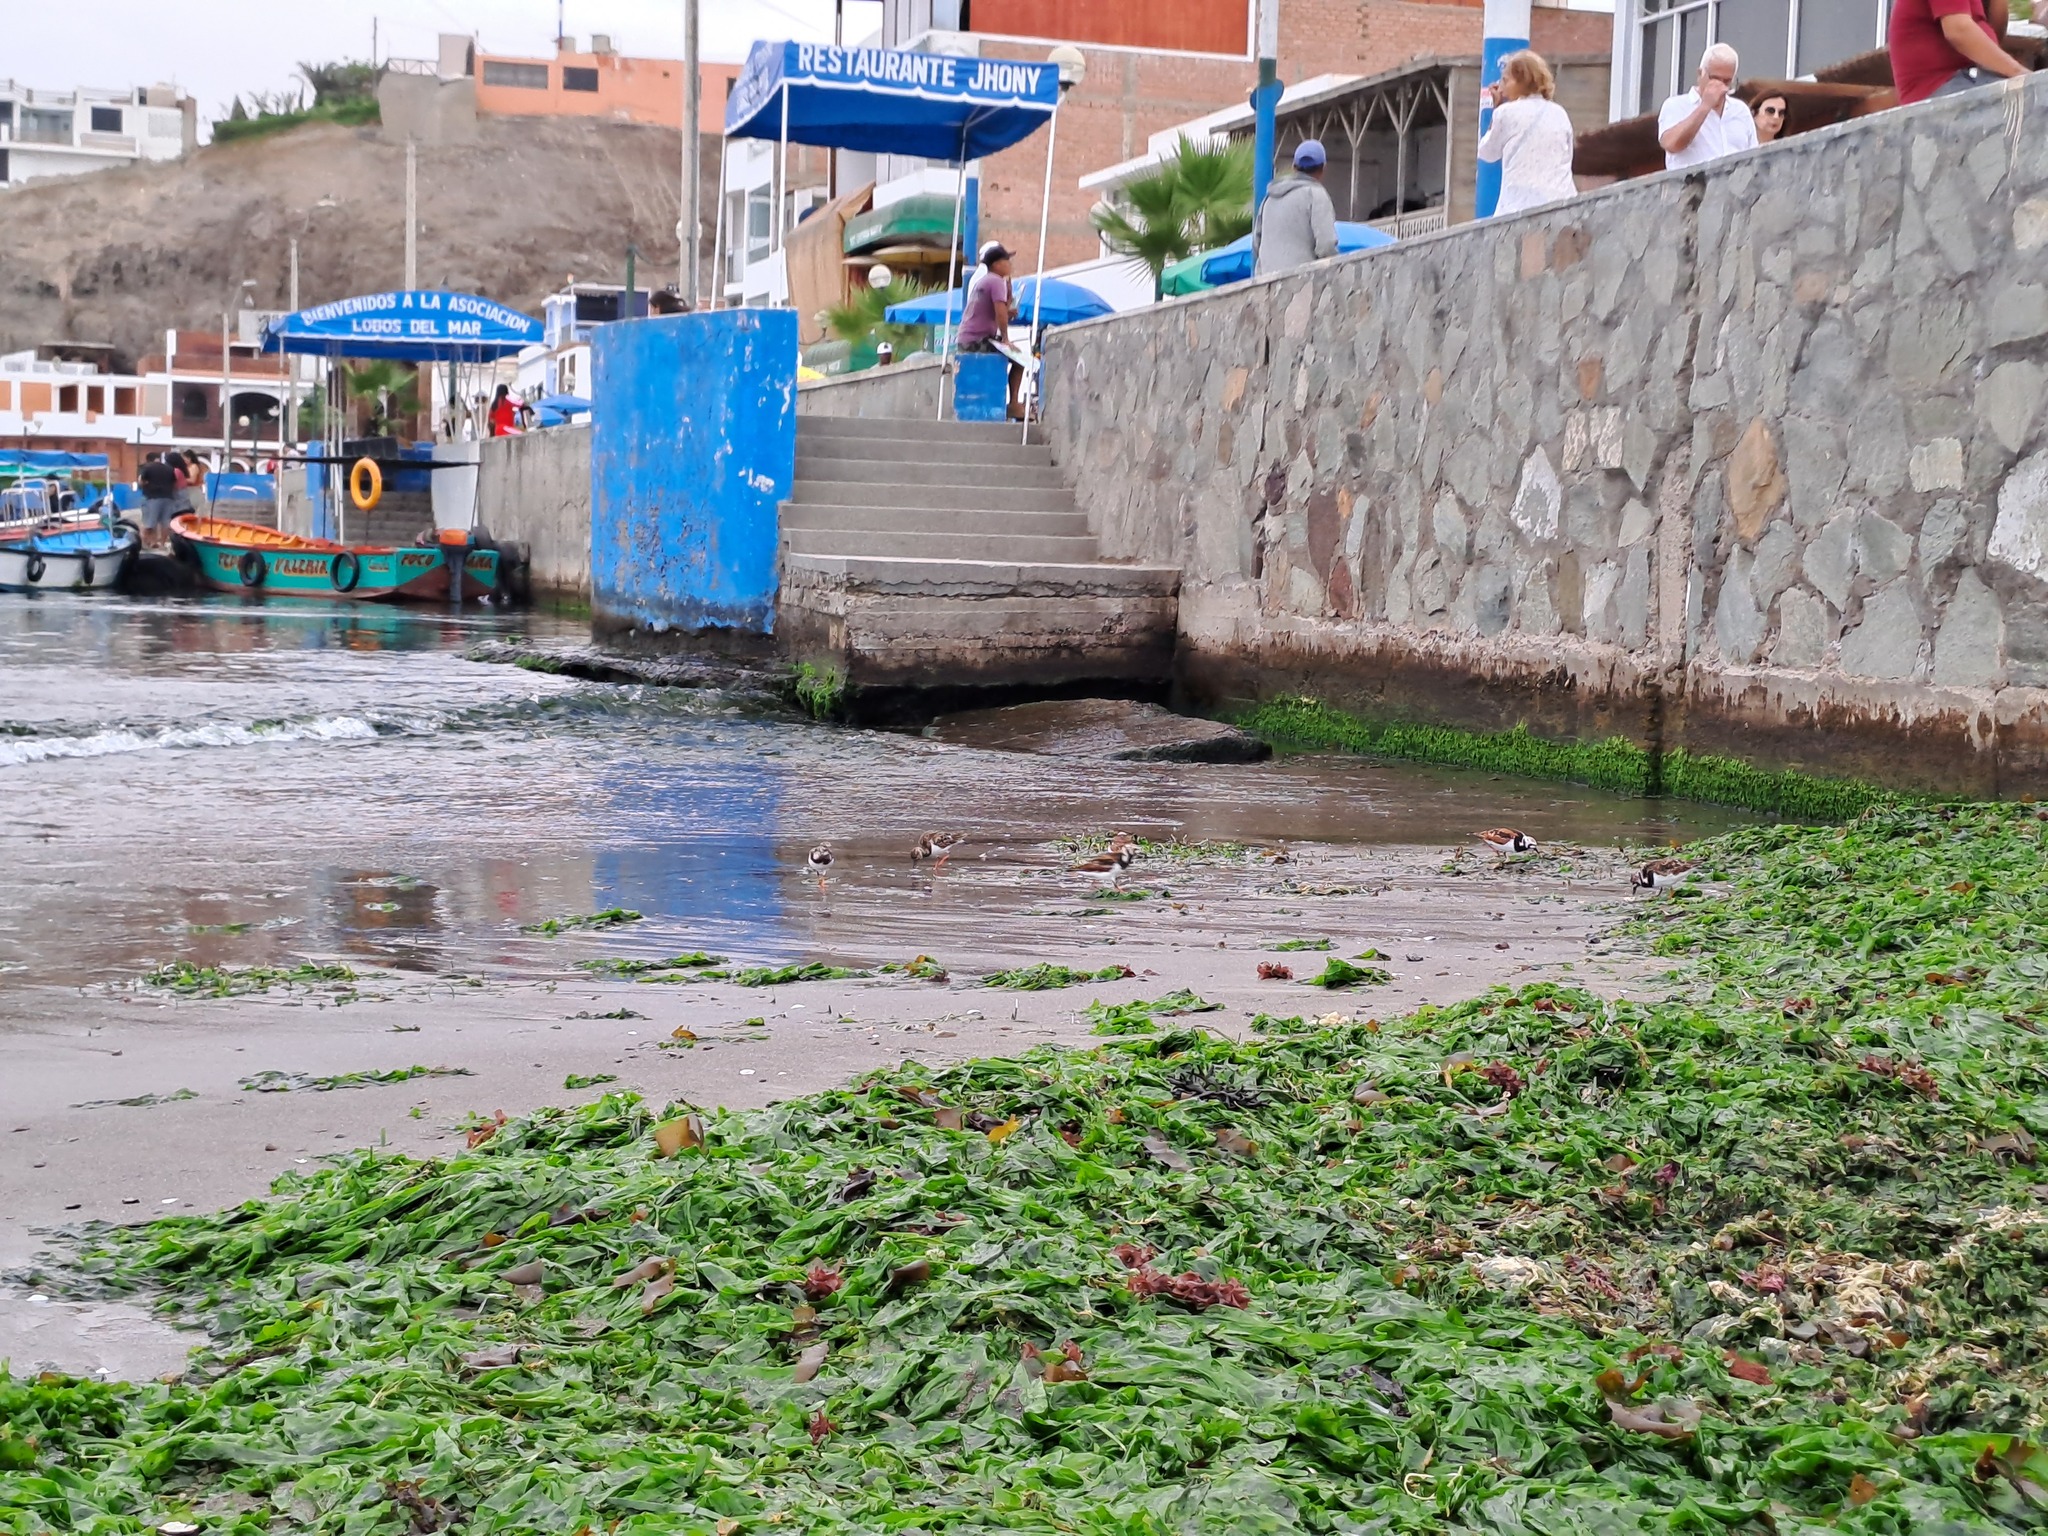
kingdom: Animalia
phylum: Chordata
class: Aves
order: Charadriiformes
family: Scolopacidae
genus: Arenaria
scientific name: Arenaria interpres
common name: Ruddy turnstone
